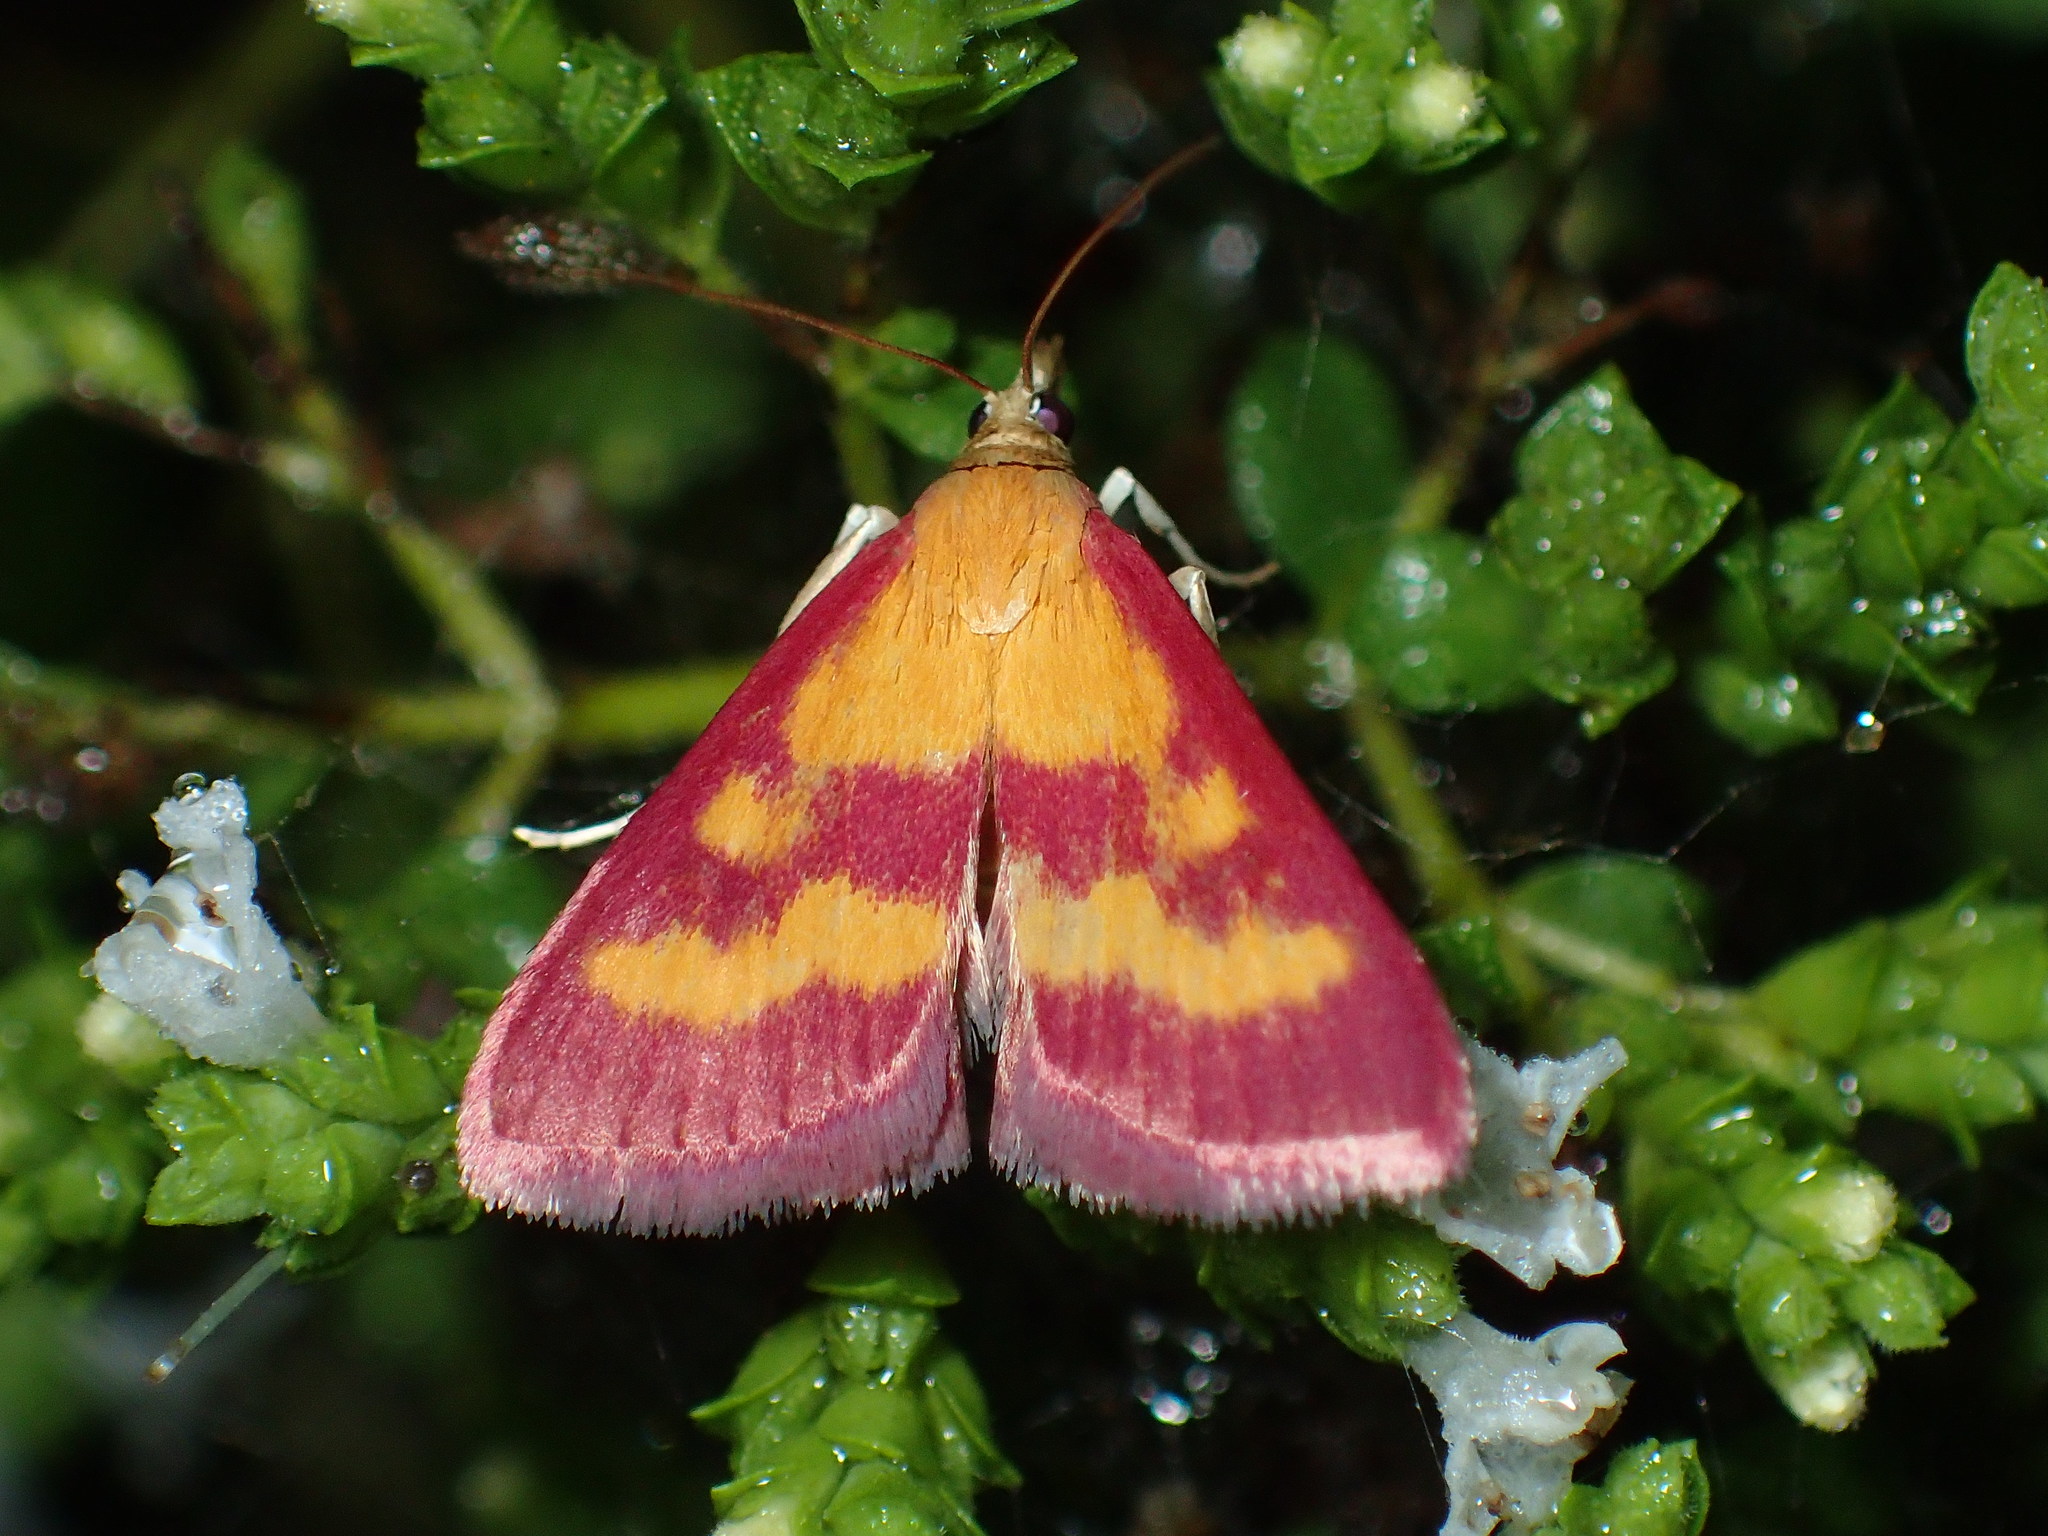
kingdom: Animalia
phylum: Arthropoda
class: Insecta
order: Lepidoptera
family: Crambidae
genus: Pyrausta
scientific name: Pyrausta laticlavia
